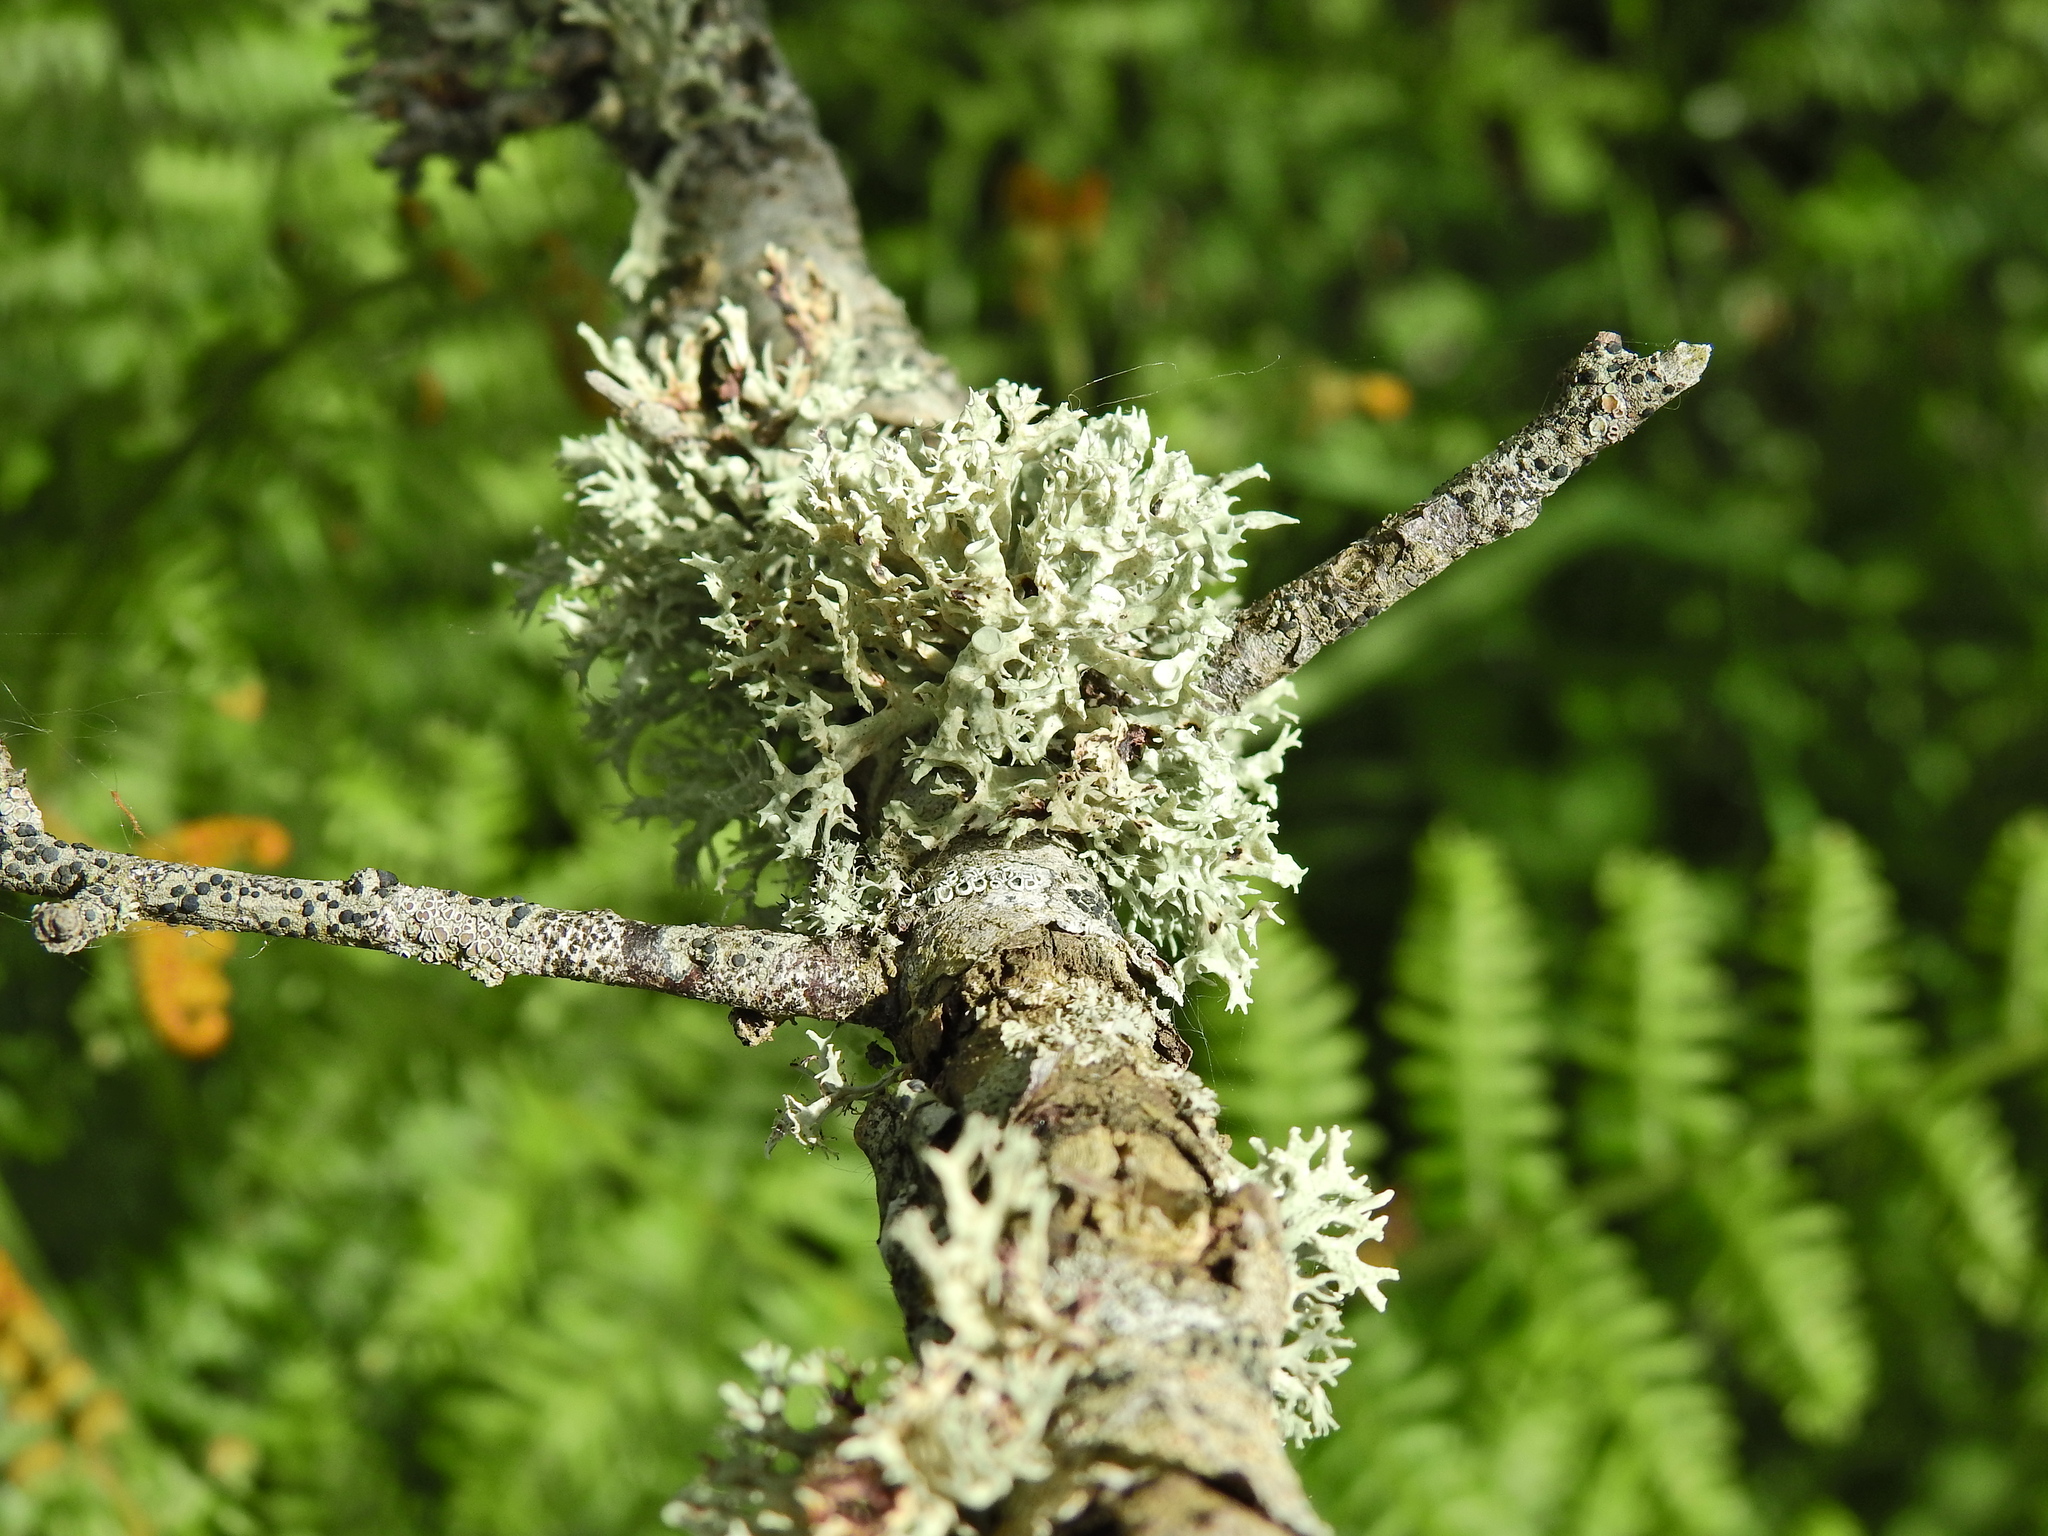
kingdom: Fungi
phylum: Ascomycota
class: Lecanoromycetes
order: Lecanorales
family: Ramalinaceae
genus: Ramalina
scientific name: Ramalina fastigiata
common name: Dotted ribbon lichen
